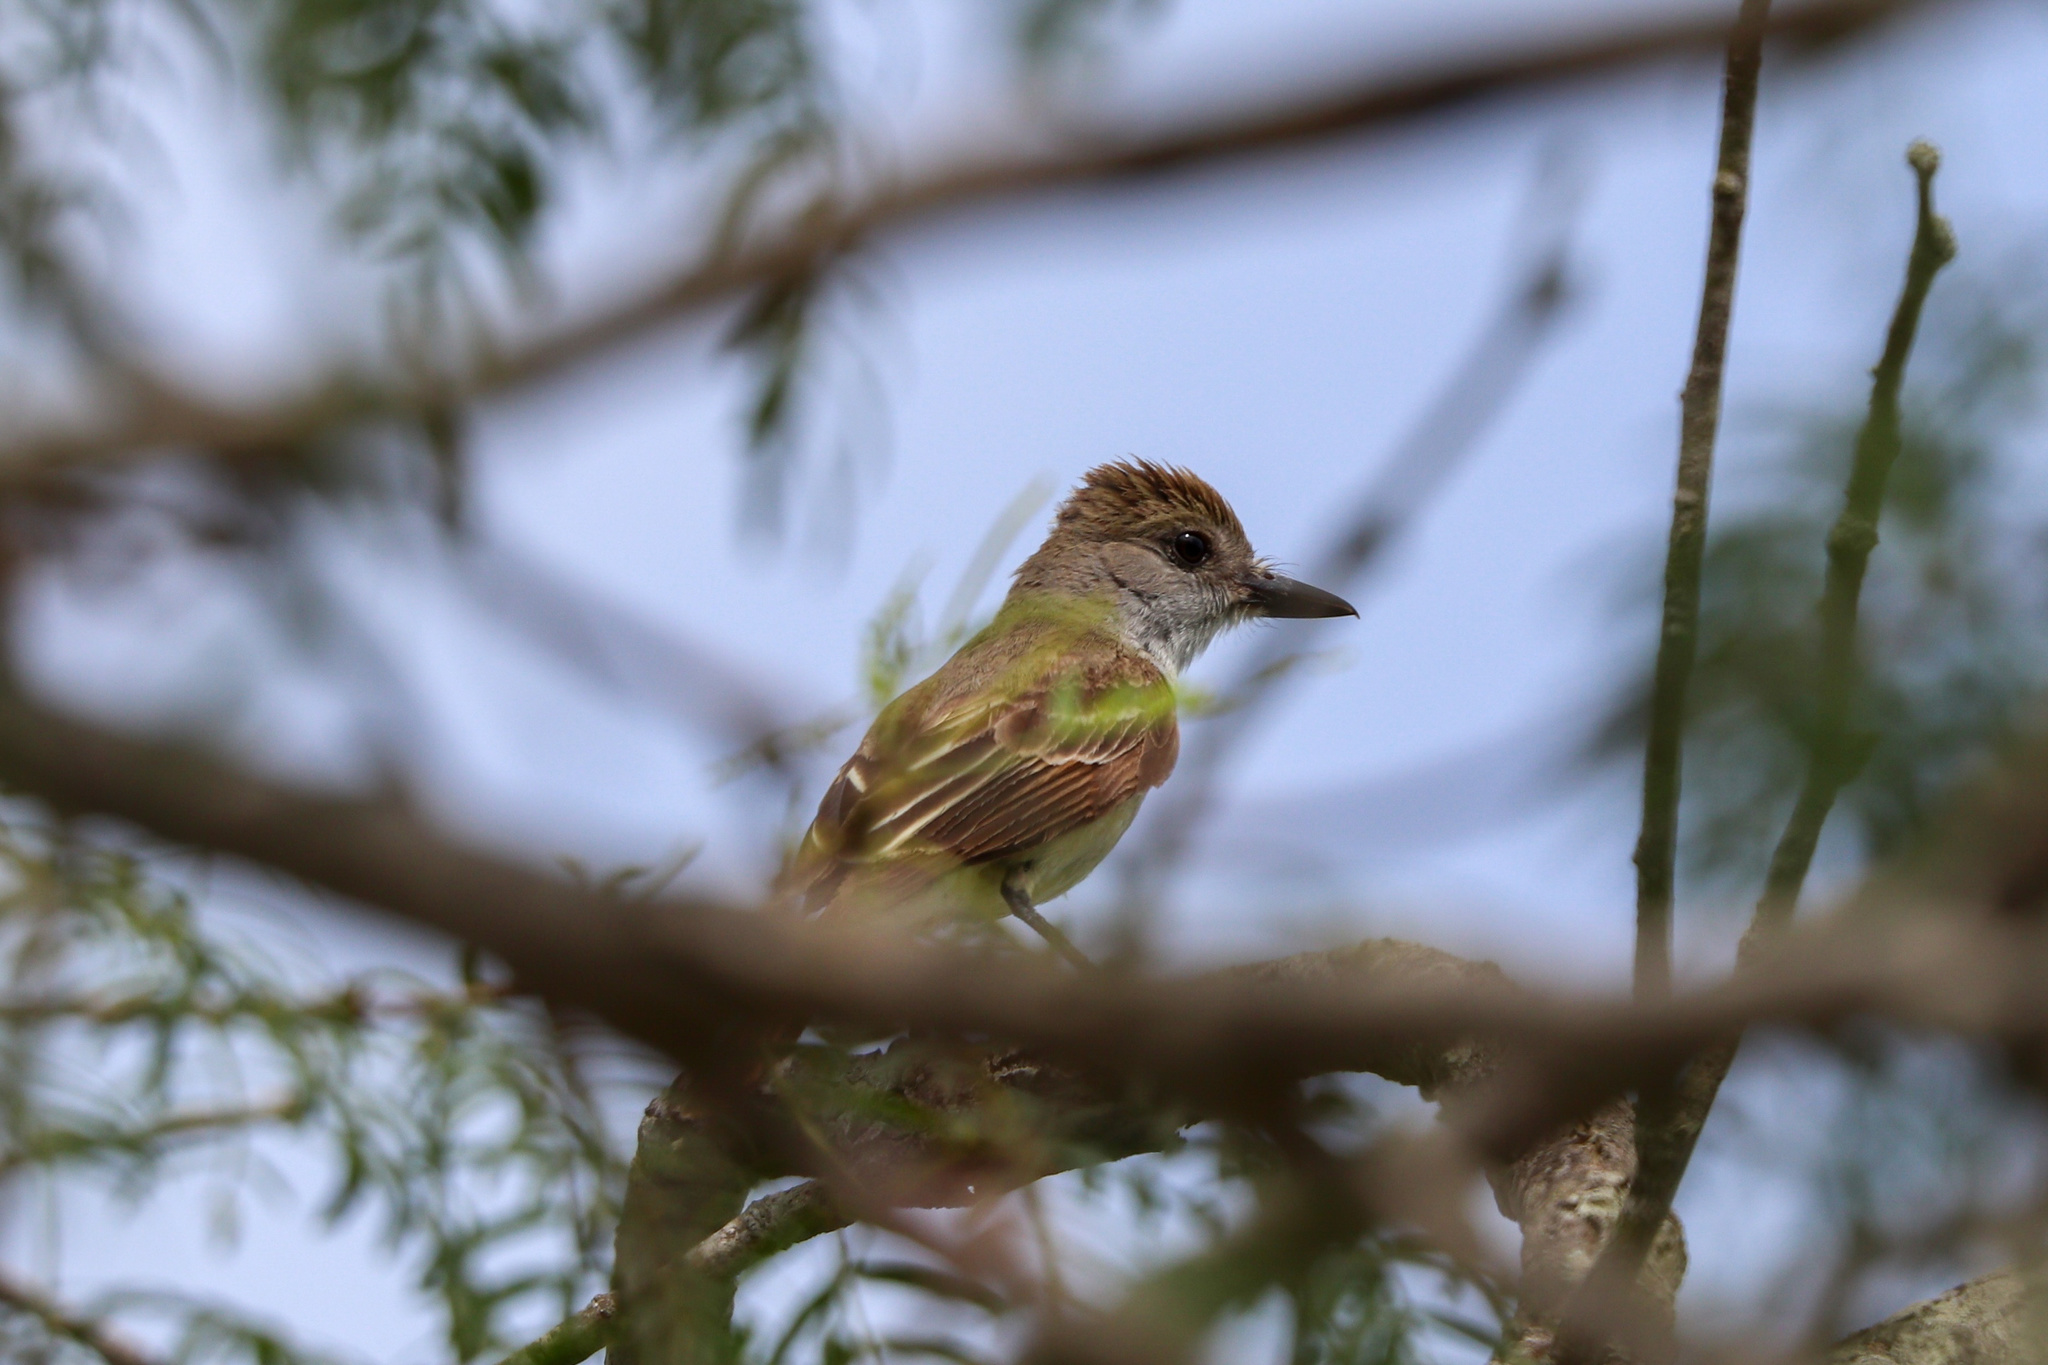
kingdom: Animalia
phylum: Chordata
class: Aves
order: Passeriformes
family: Tyrannidae
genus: Myiarchus
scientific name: Myiarchus tyrannulus
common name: Brown-crested flycatcher
